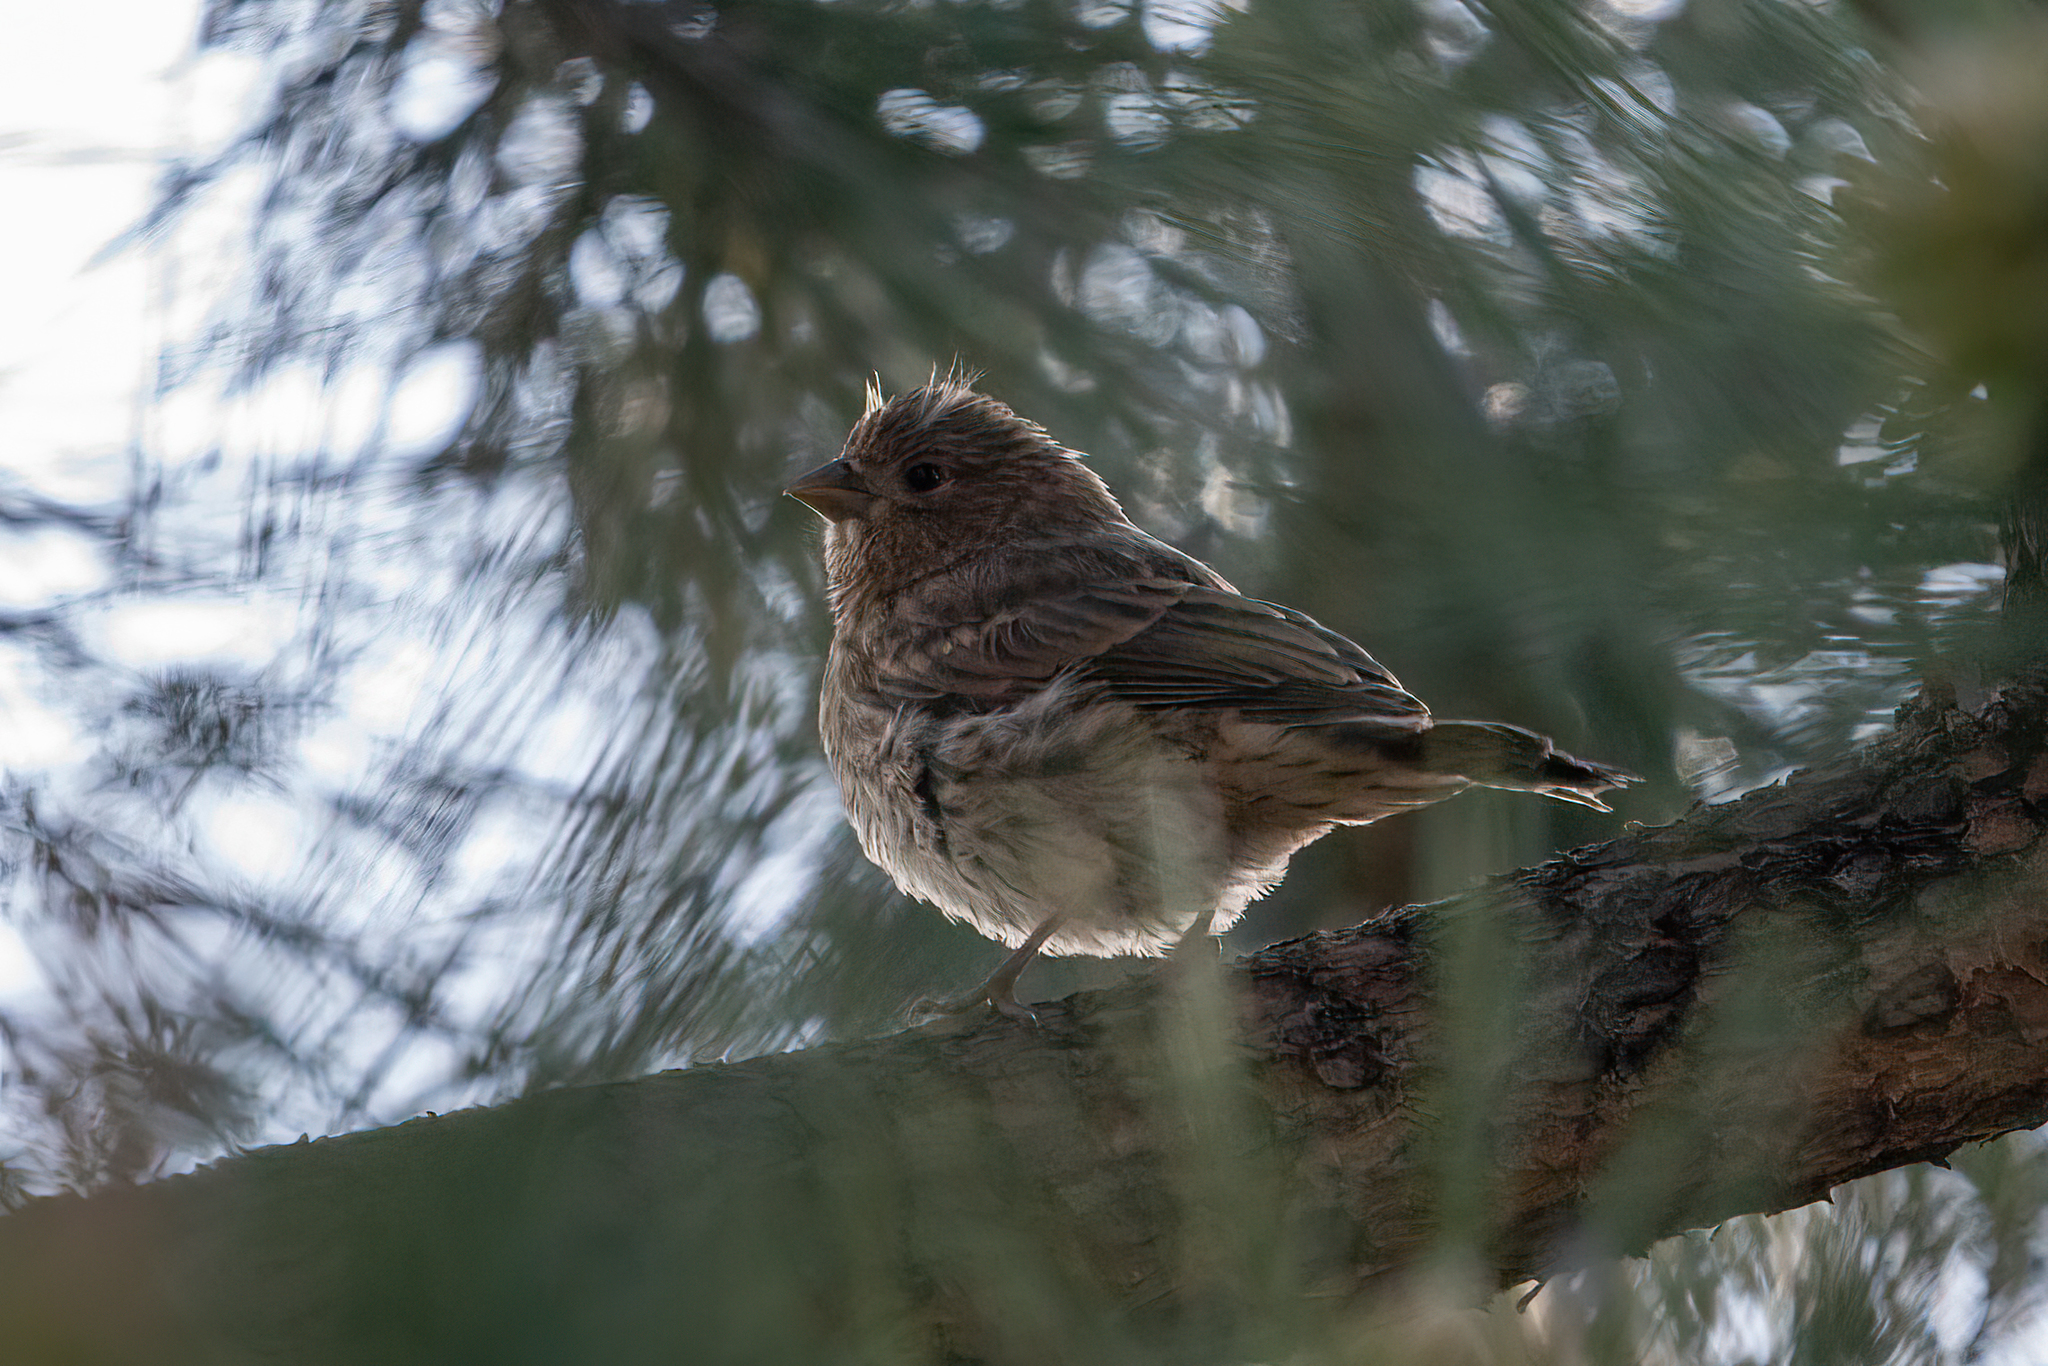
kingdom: Animalia
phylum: Chordata
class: Aves
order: Passeriformes
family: Fringillidae
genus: Haemorhous
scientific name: Haemorhous mexicanus
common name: House finch
